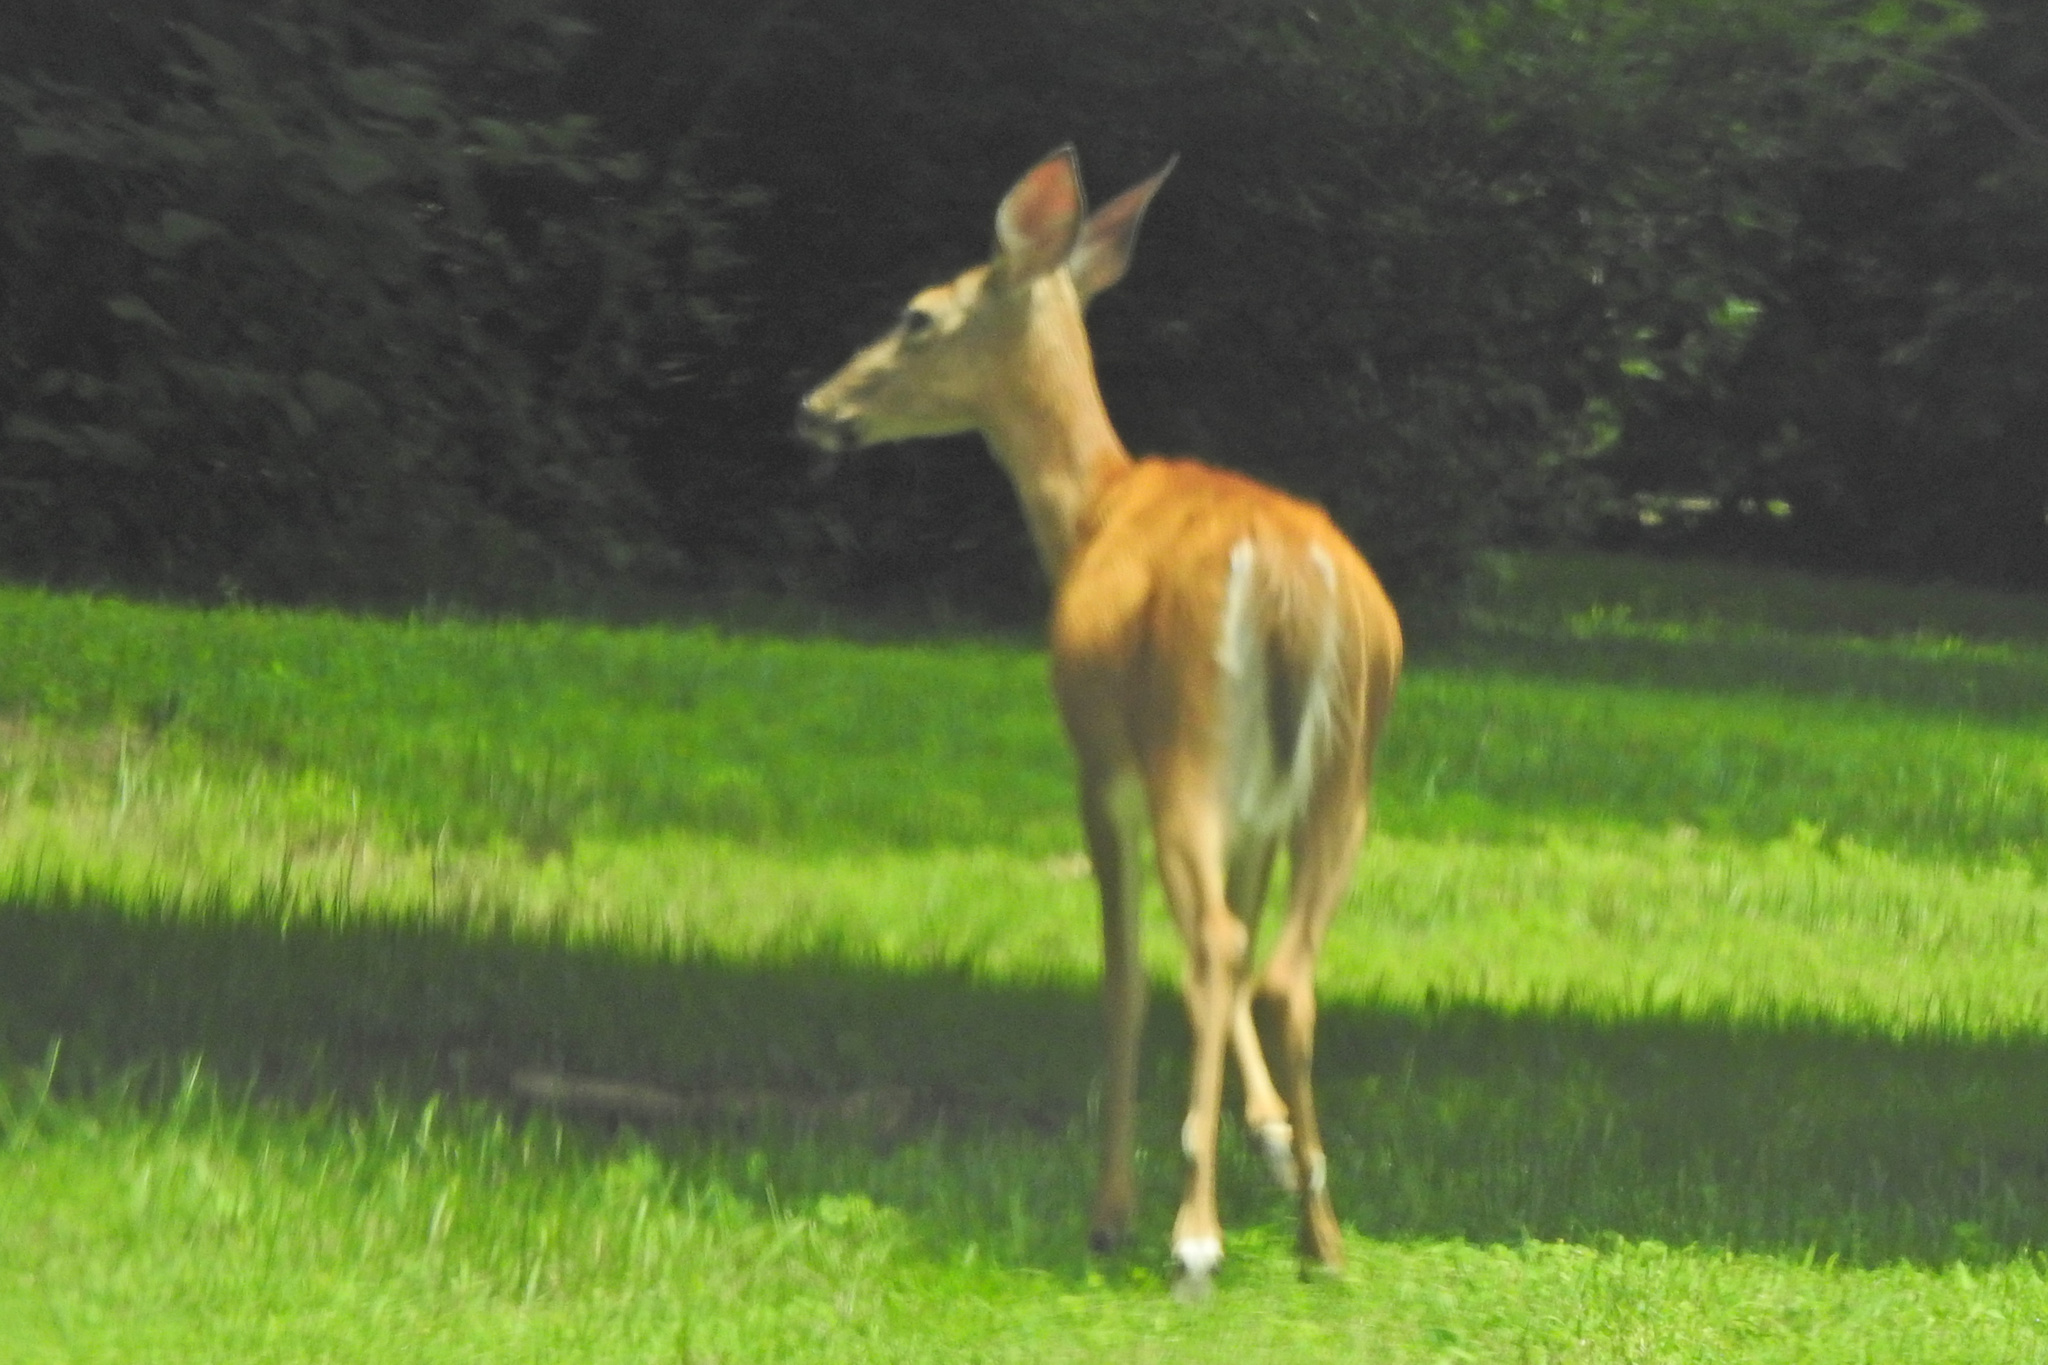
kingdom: Animalia
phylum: Chordata
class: Mammalia
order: Artiodactyla
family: Cervidae
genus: Odocoileus
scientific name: Odocoileus virginianus
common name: White-tailed deer
